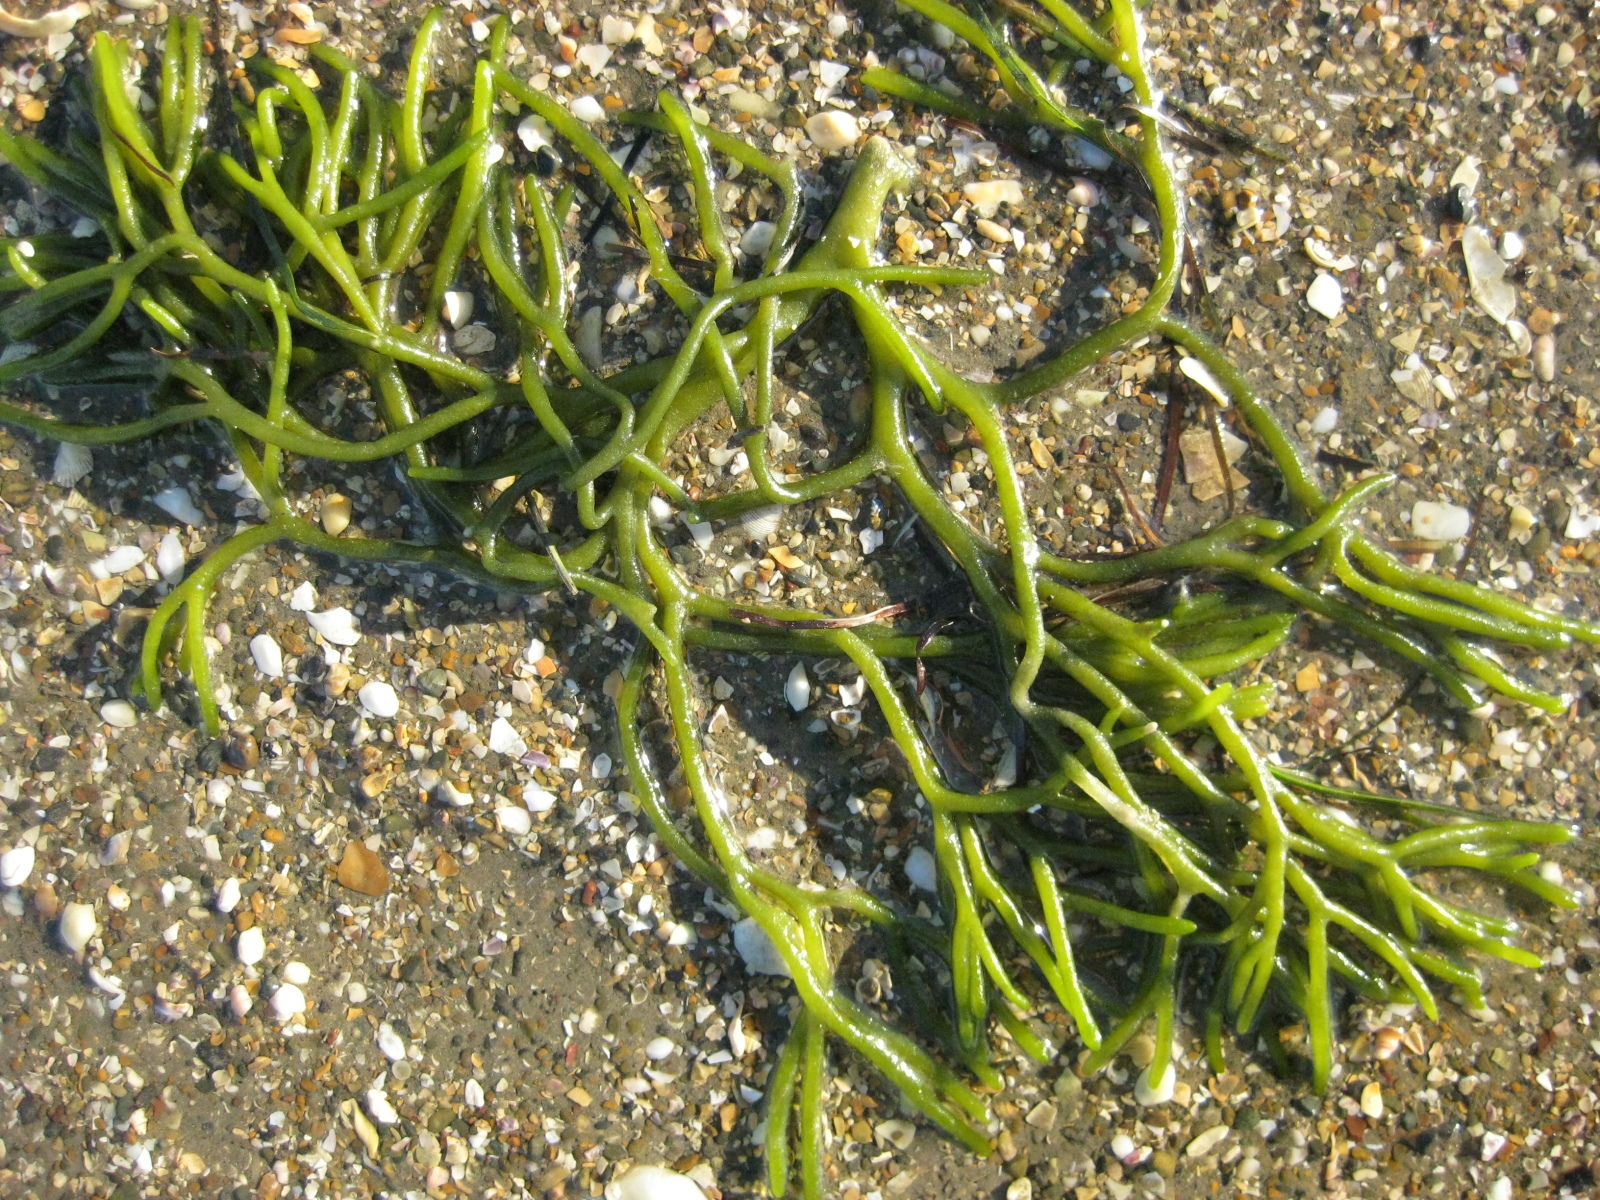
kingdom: Plantae
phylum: Chlorophyta
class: Ulvophyceae
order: Bryopsidales
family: Codiaceae
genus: Codium
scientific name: Codium gracile
